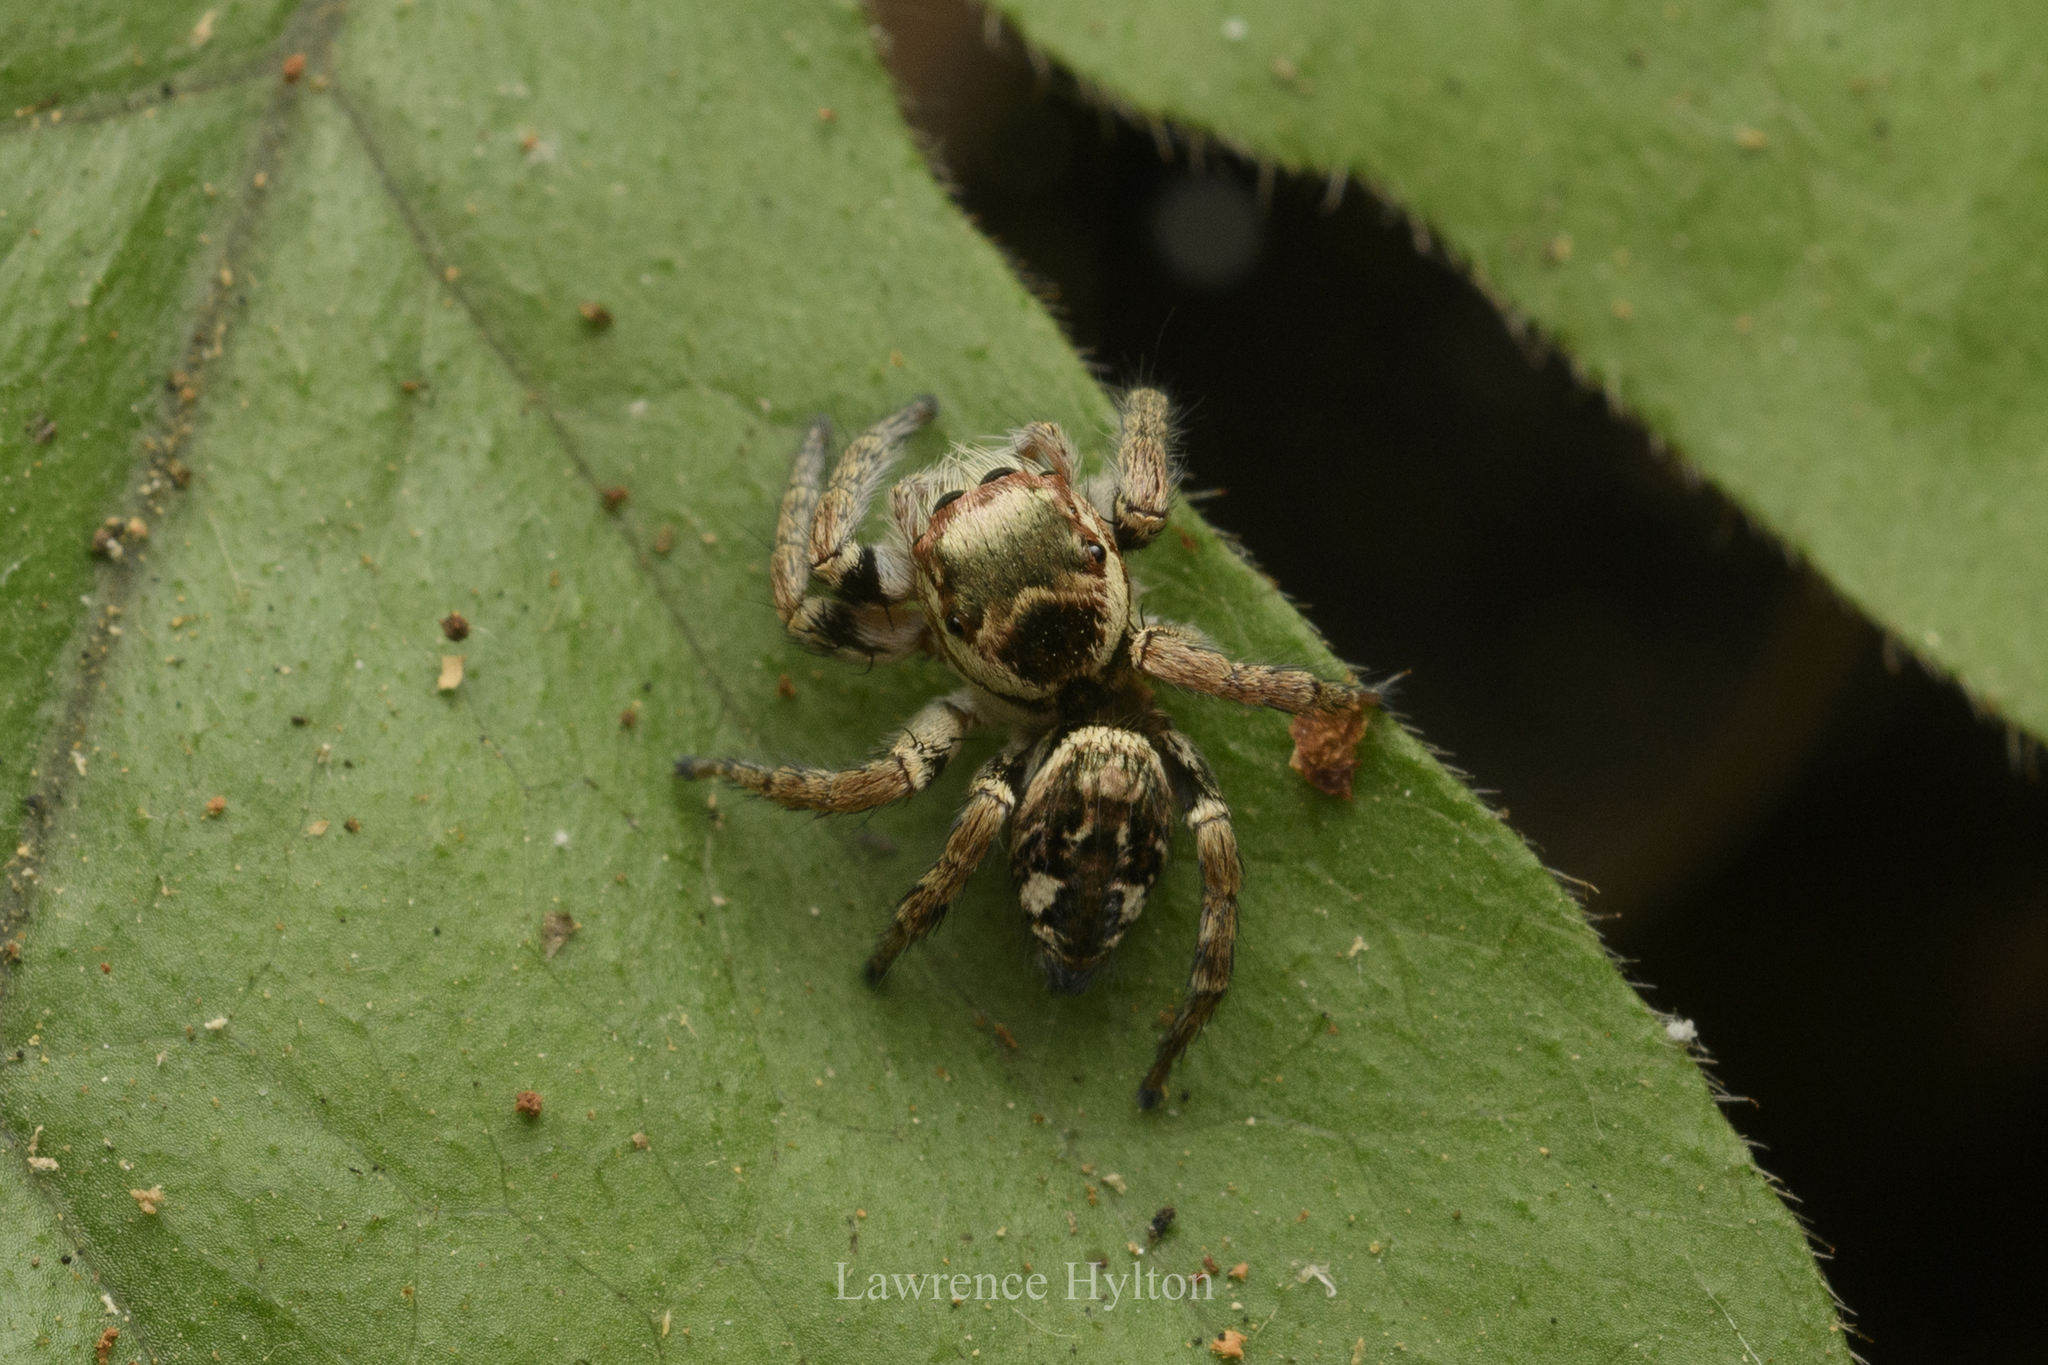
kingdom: Animalia
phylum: Arthropoda
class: Arachnida
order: Araneae
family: Salticidae
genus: Carrhotus
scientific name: Carrhotus viduus
